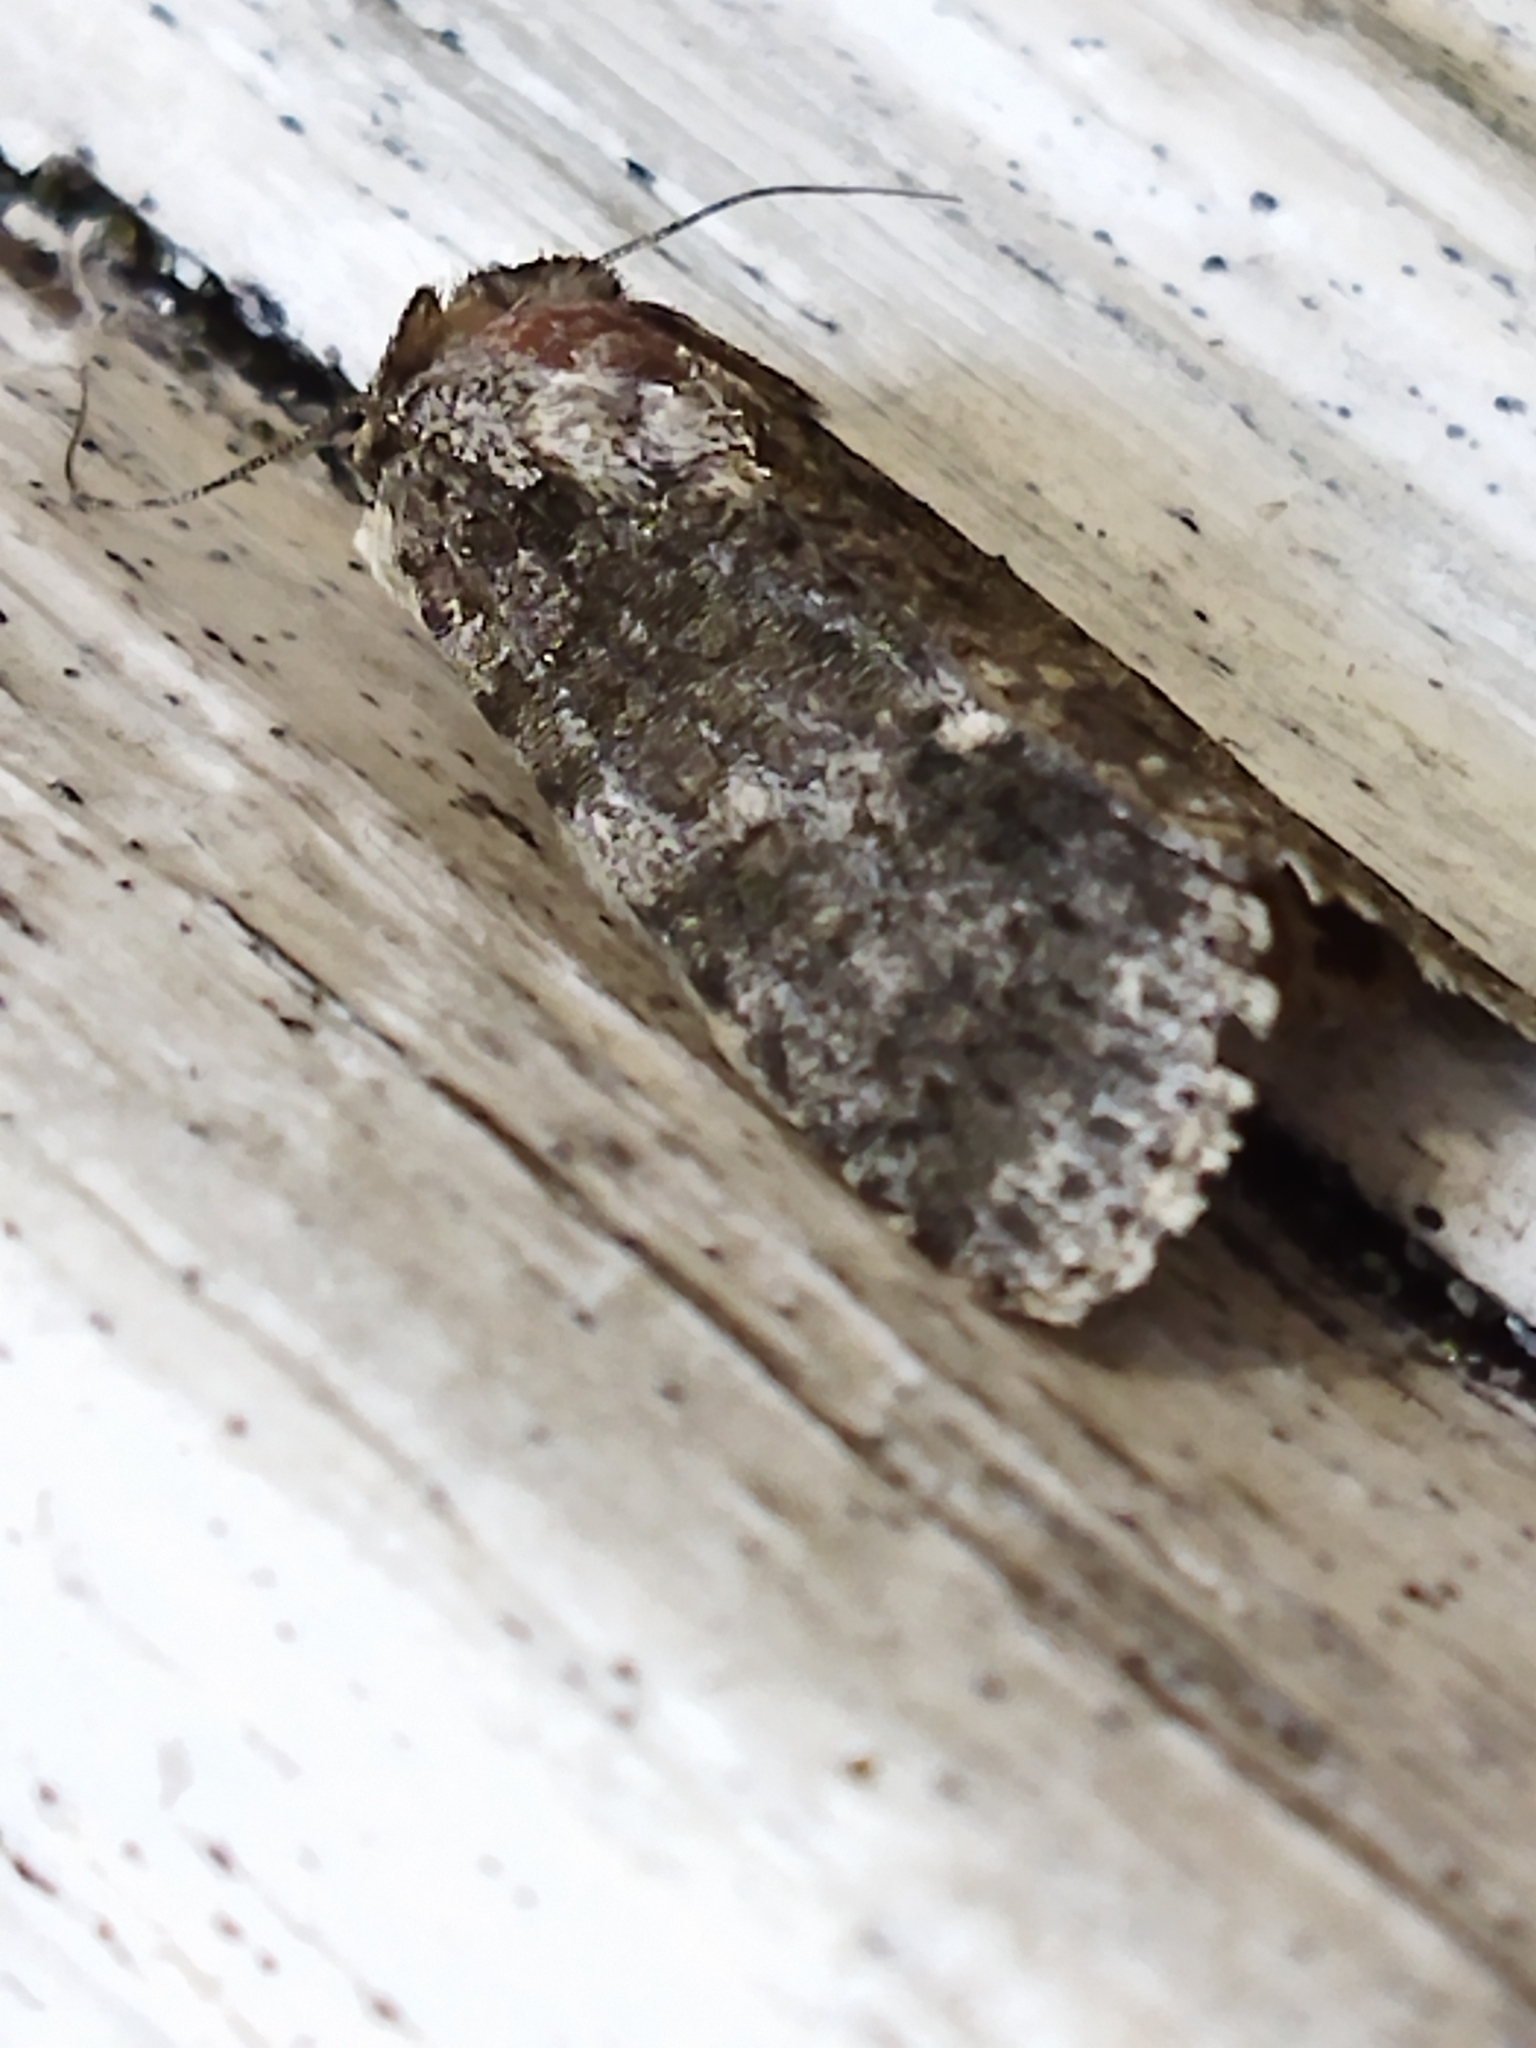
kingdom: Animalia
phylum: Arthropoda
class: Insecta
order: Lepidoptera
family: Noctuidae
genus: Acronicta
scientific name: Acronicta rumicis
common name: Knot grass
